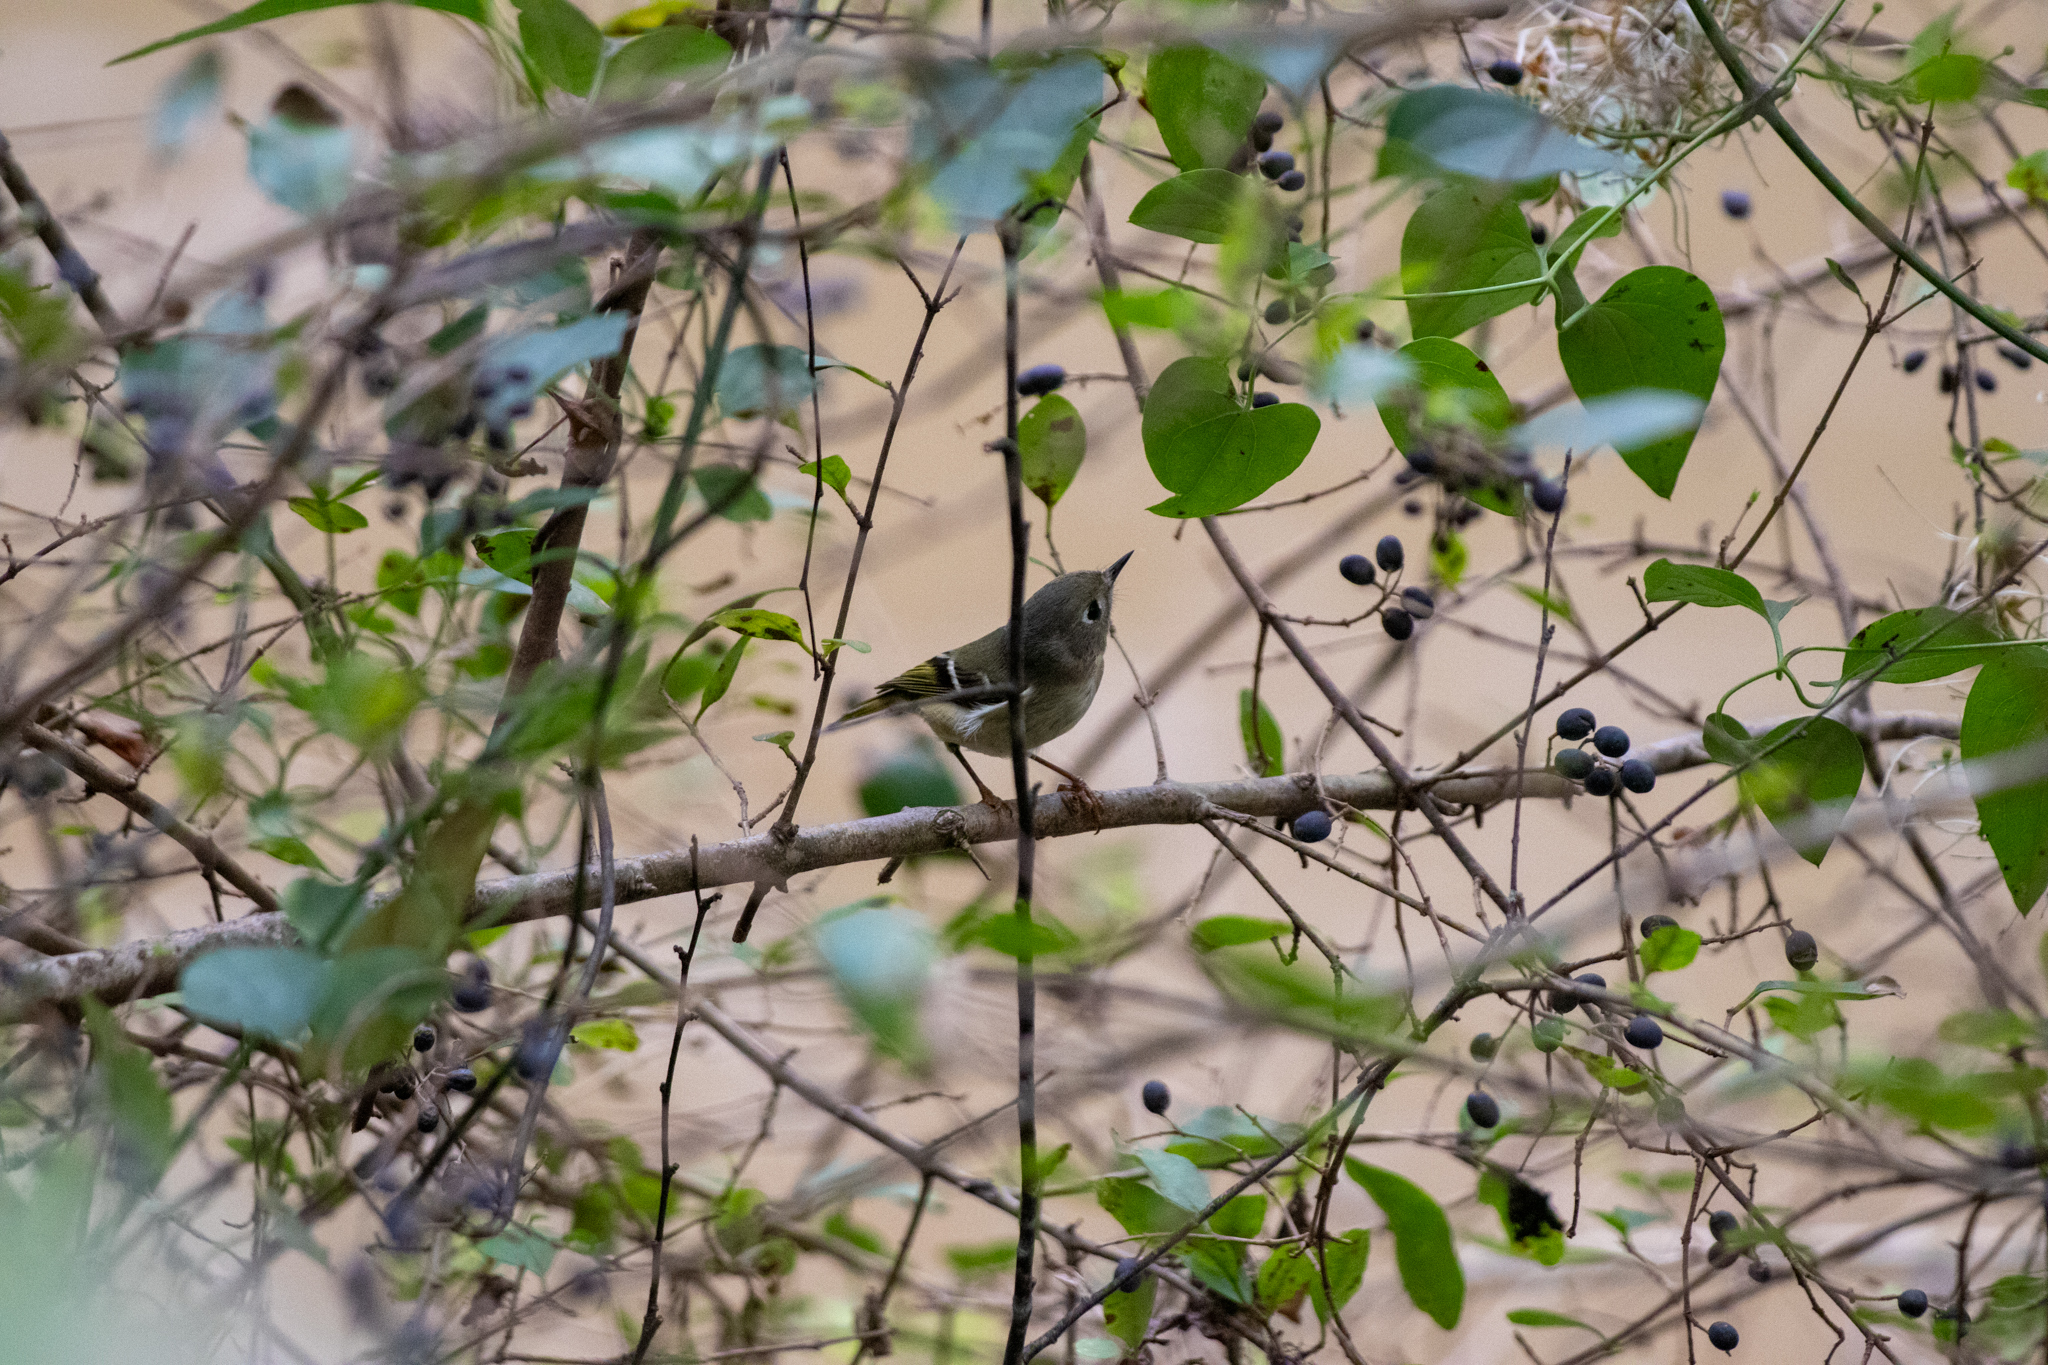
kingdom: Animalia
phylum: Chordata
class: Aves
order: Passeriformes
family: Regulidae
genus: Regulus
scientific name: Regulus calendula
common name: Ruby-crowned kinglet
